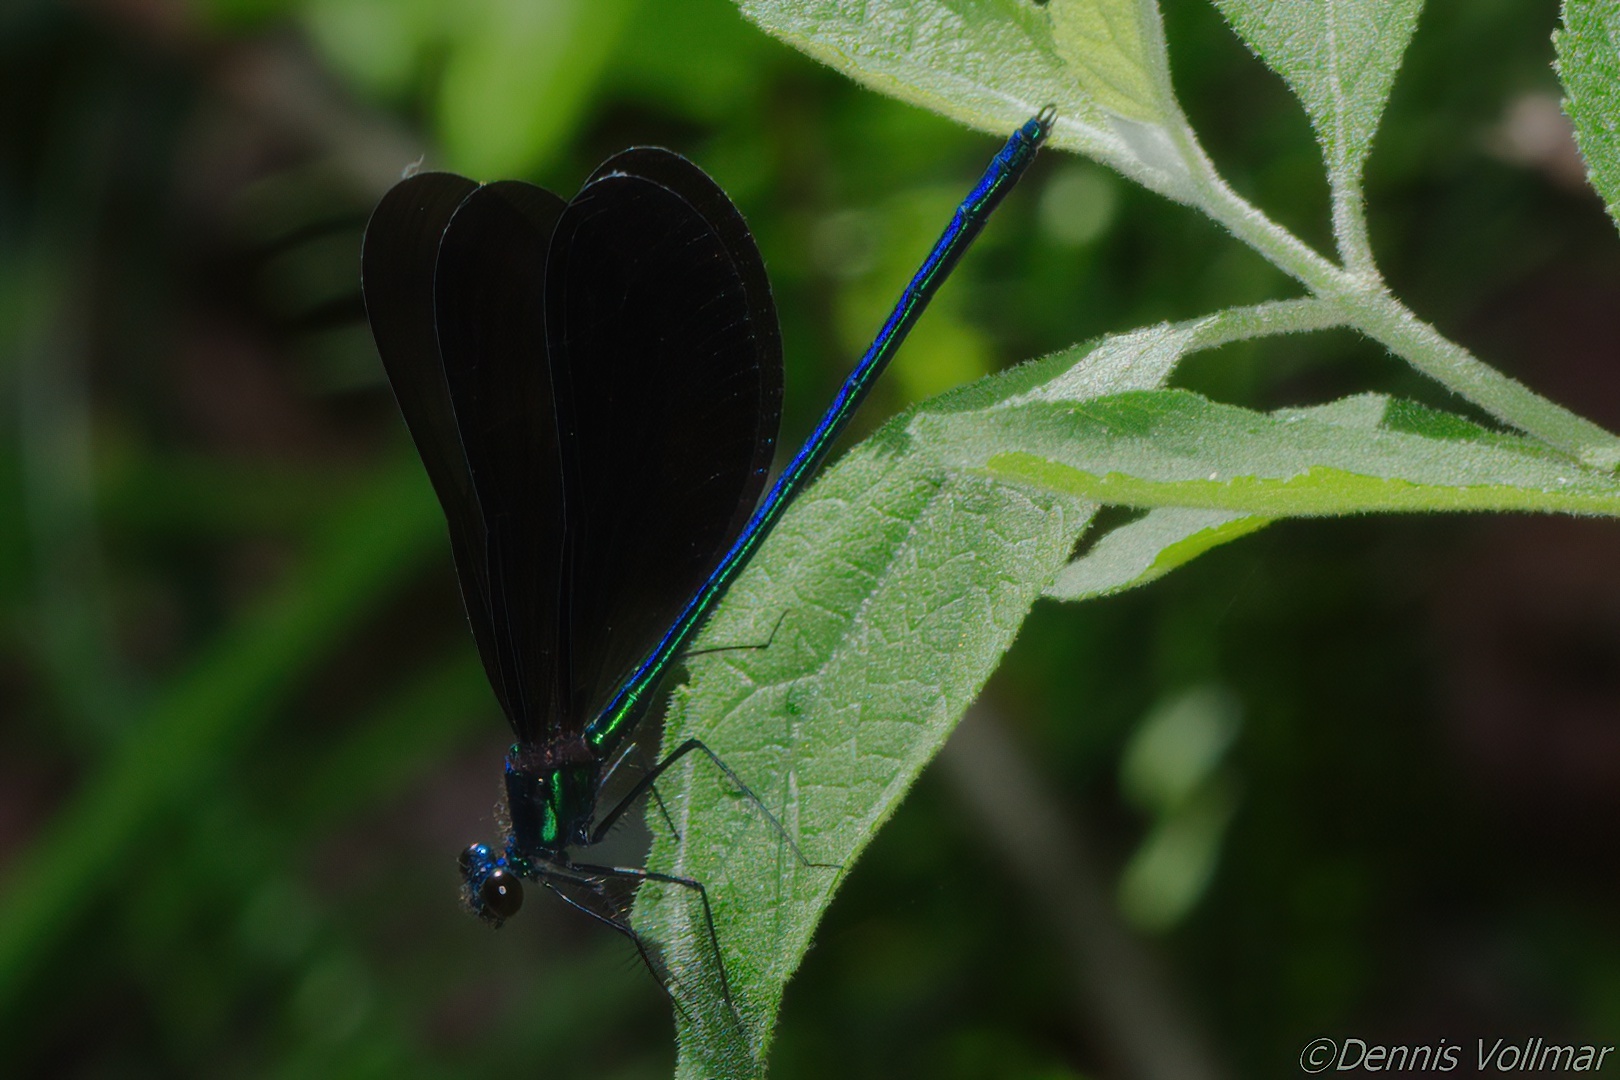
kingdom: Animalia
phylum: Arthropoda
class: Insecta
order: Odonata
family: Calopterygidae
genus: Calopteryx
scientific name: Calopteryx maculata
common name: Ebony jewelwing
